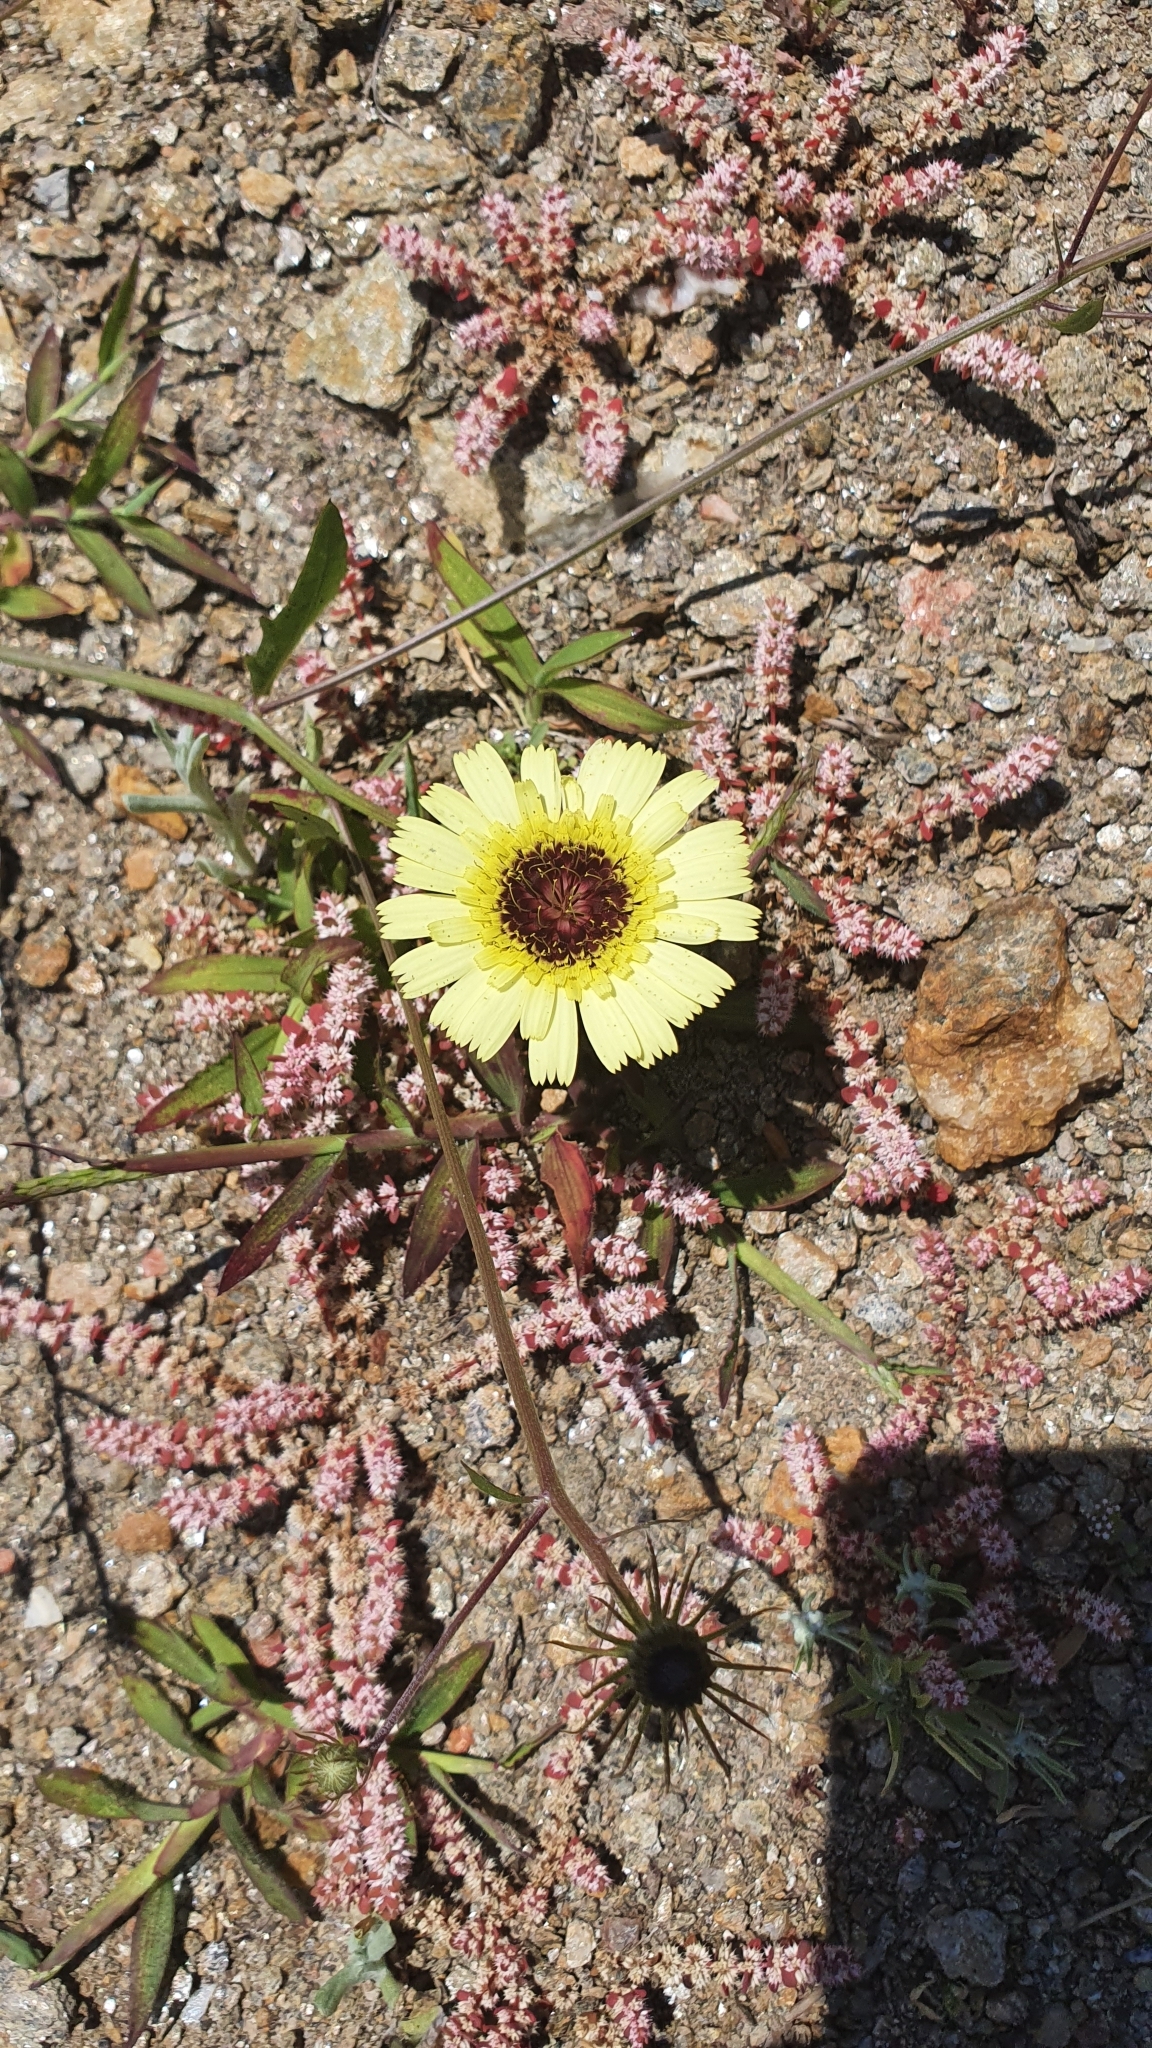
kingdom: Plantae
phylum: Tracheophyta
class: Magnoliopsida
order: Asterales
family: Asteraceae
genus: Tolpis
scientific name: Tolpis barbata
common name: Yellow hawkweed
